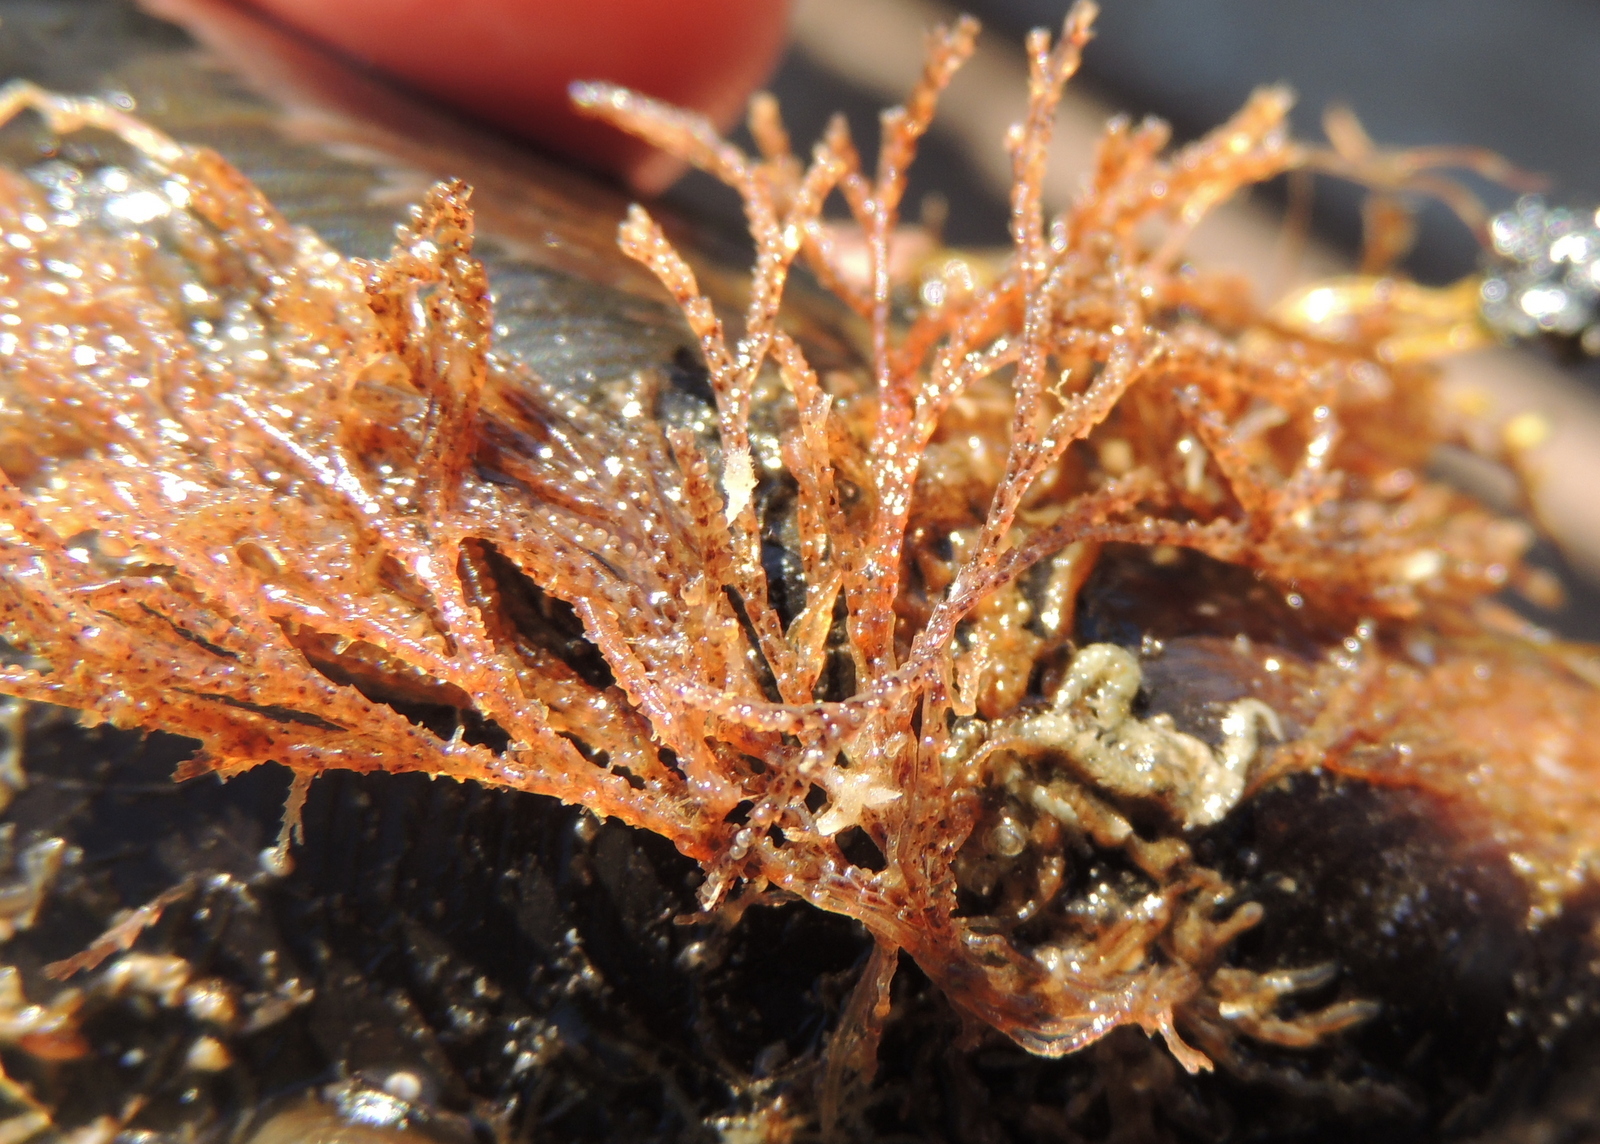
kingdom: Animalia
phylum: Bryozoa
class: Gymnolaemata
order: Cheilostomatida
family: Bugulidae
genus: Bugula
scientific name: Bugula neritina
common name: Brown bryozoan
